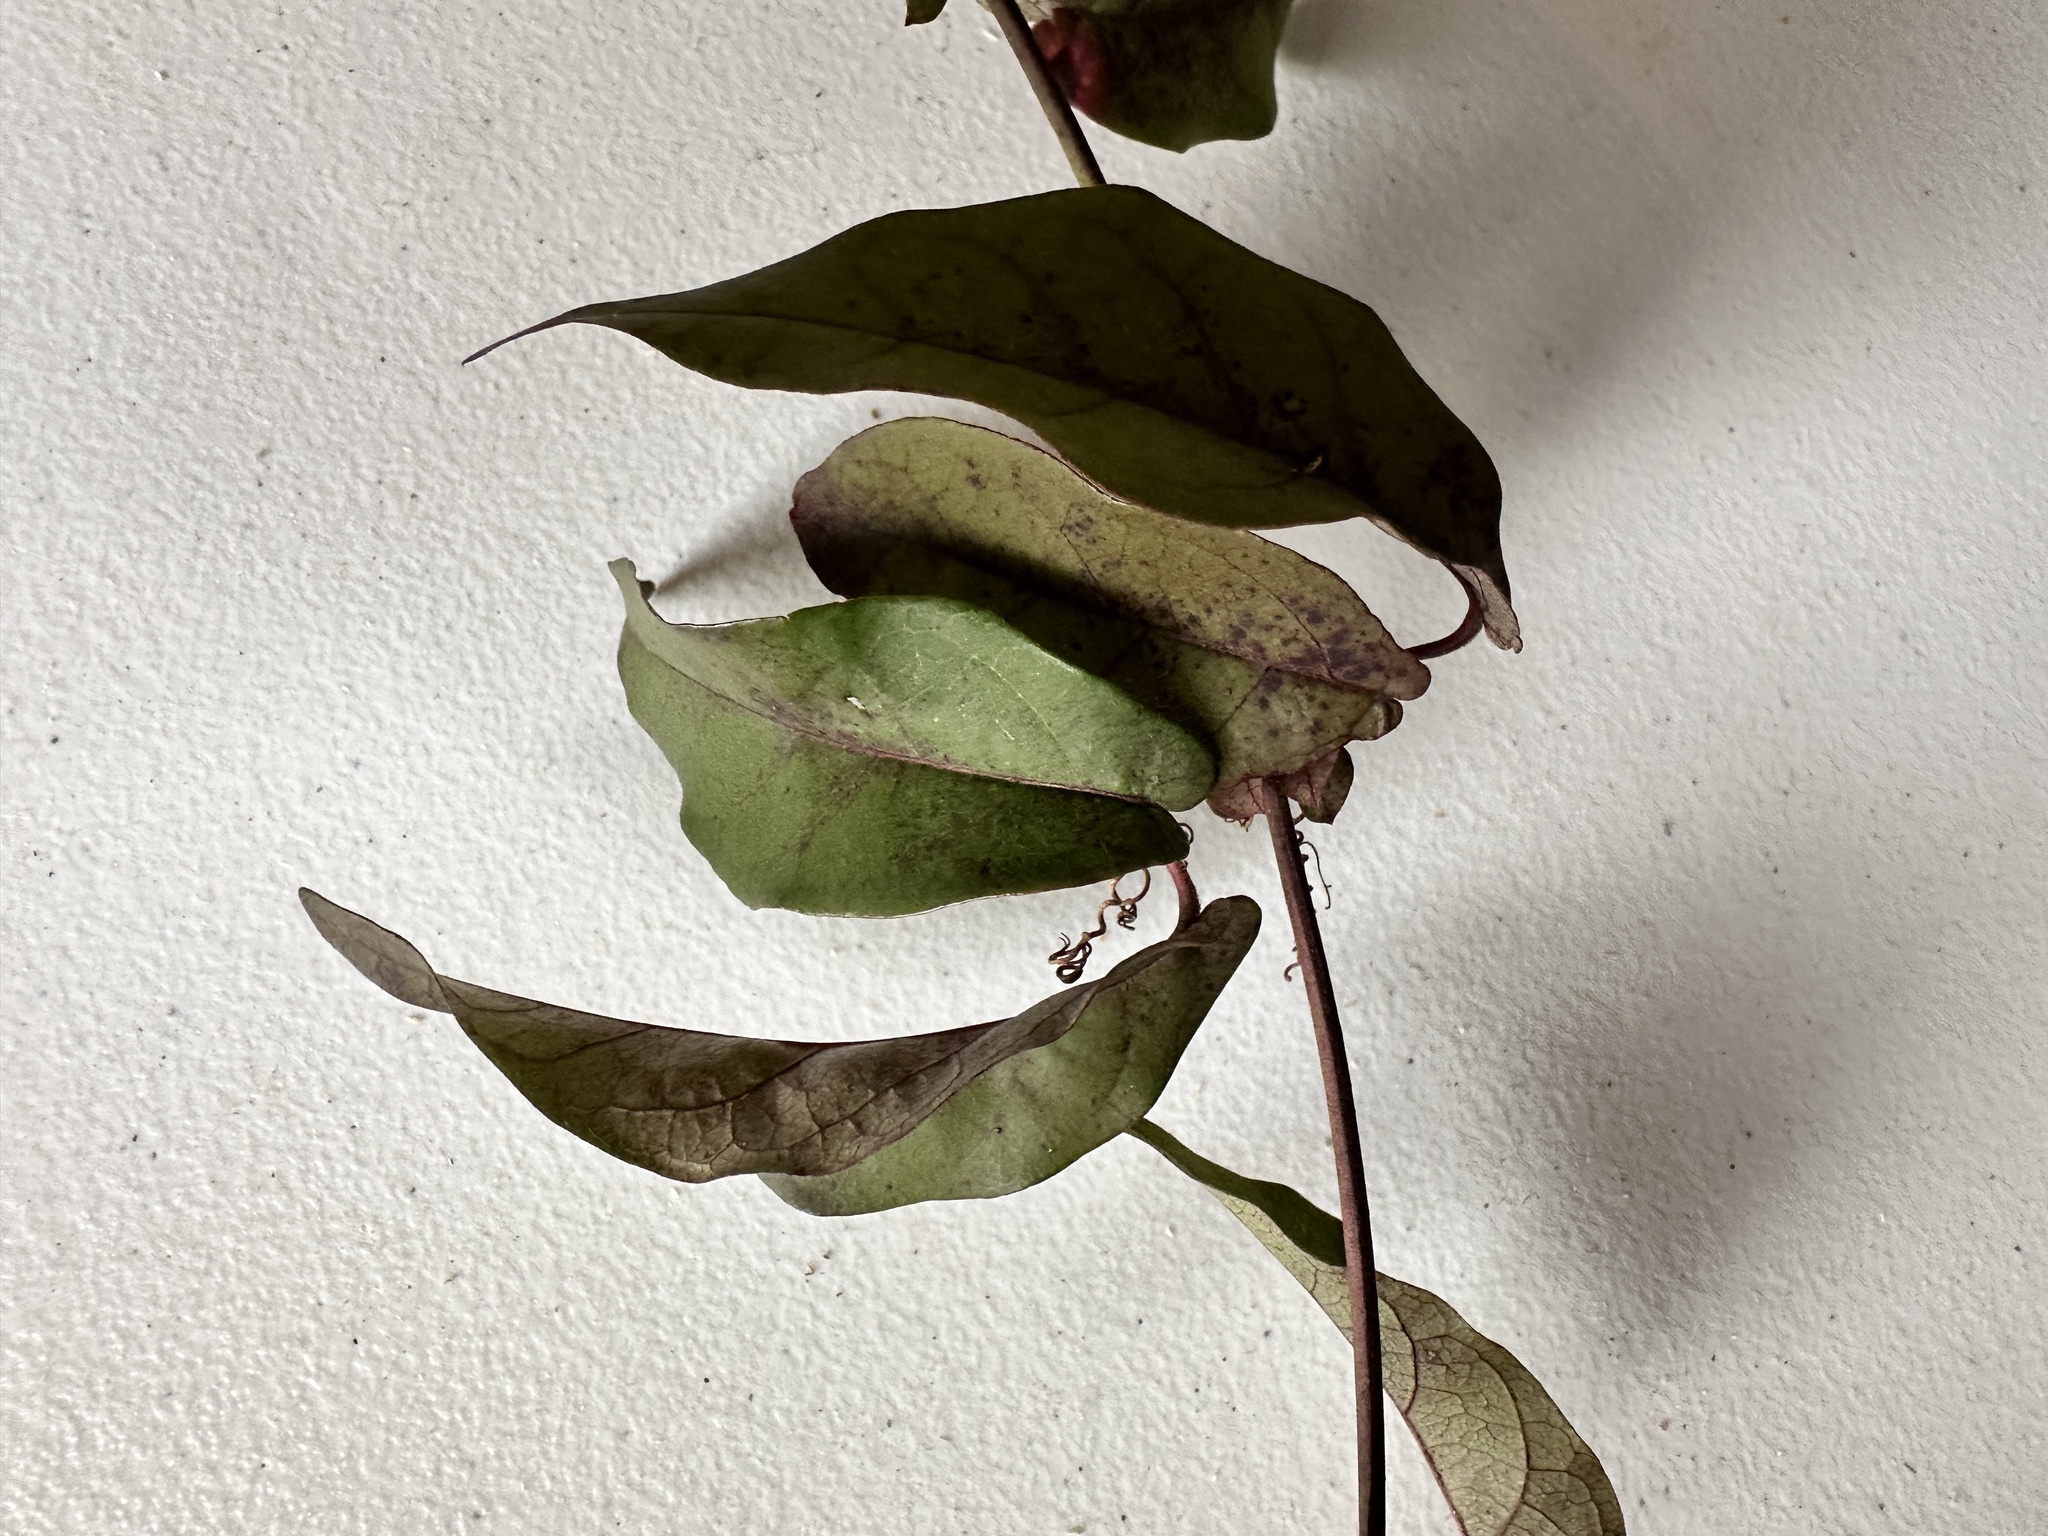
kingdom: Plantae
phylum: Tracheophyta
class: Magnoliopsida
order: Lamiales
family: Bignoniaceae
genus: Bignonia
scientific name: Bignonia capreolata
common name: Crossvine
